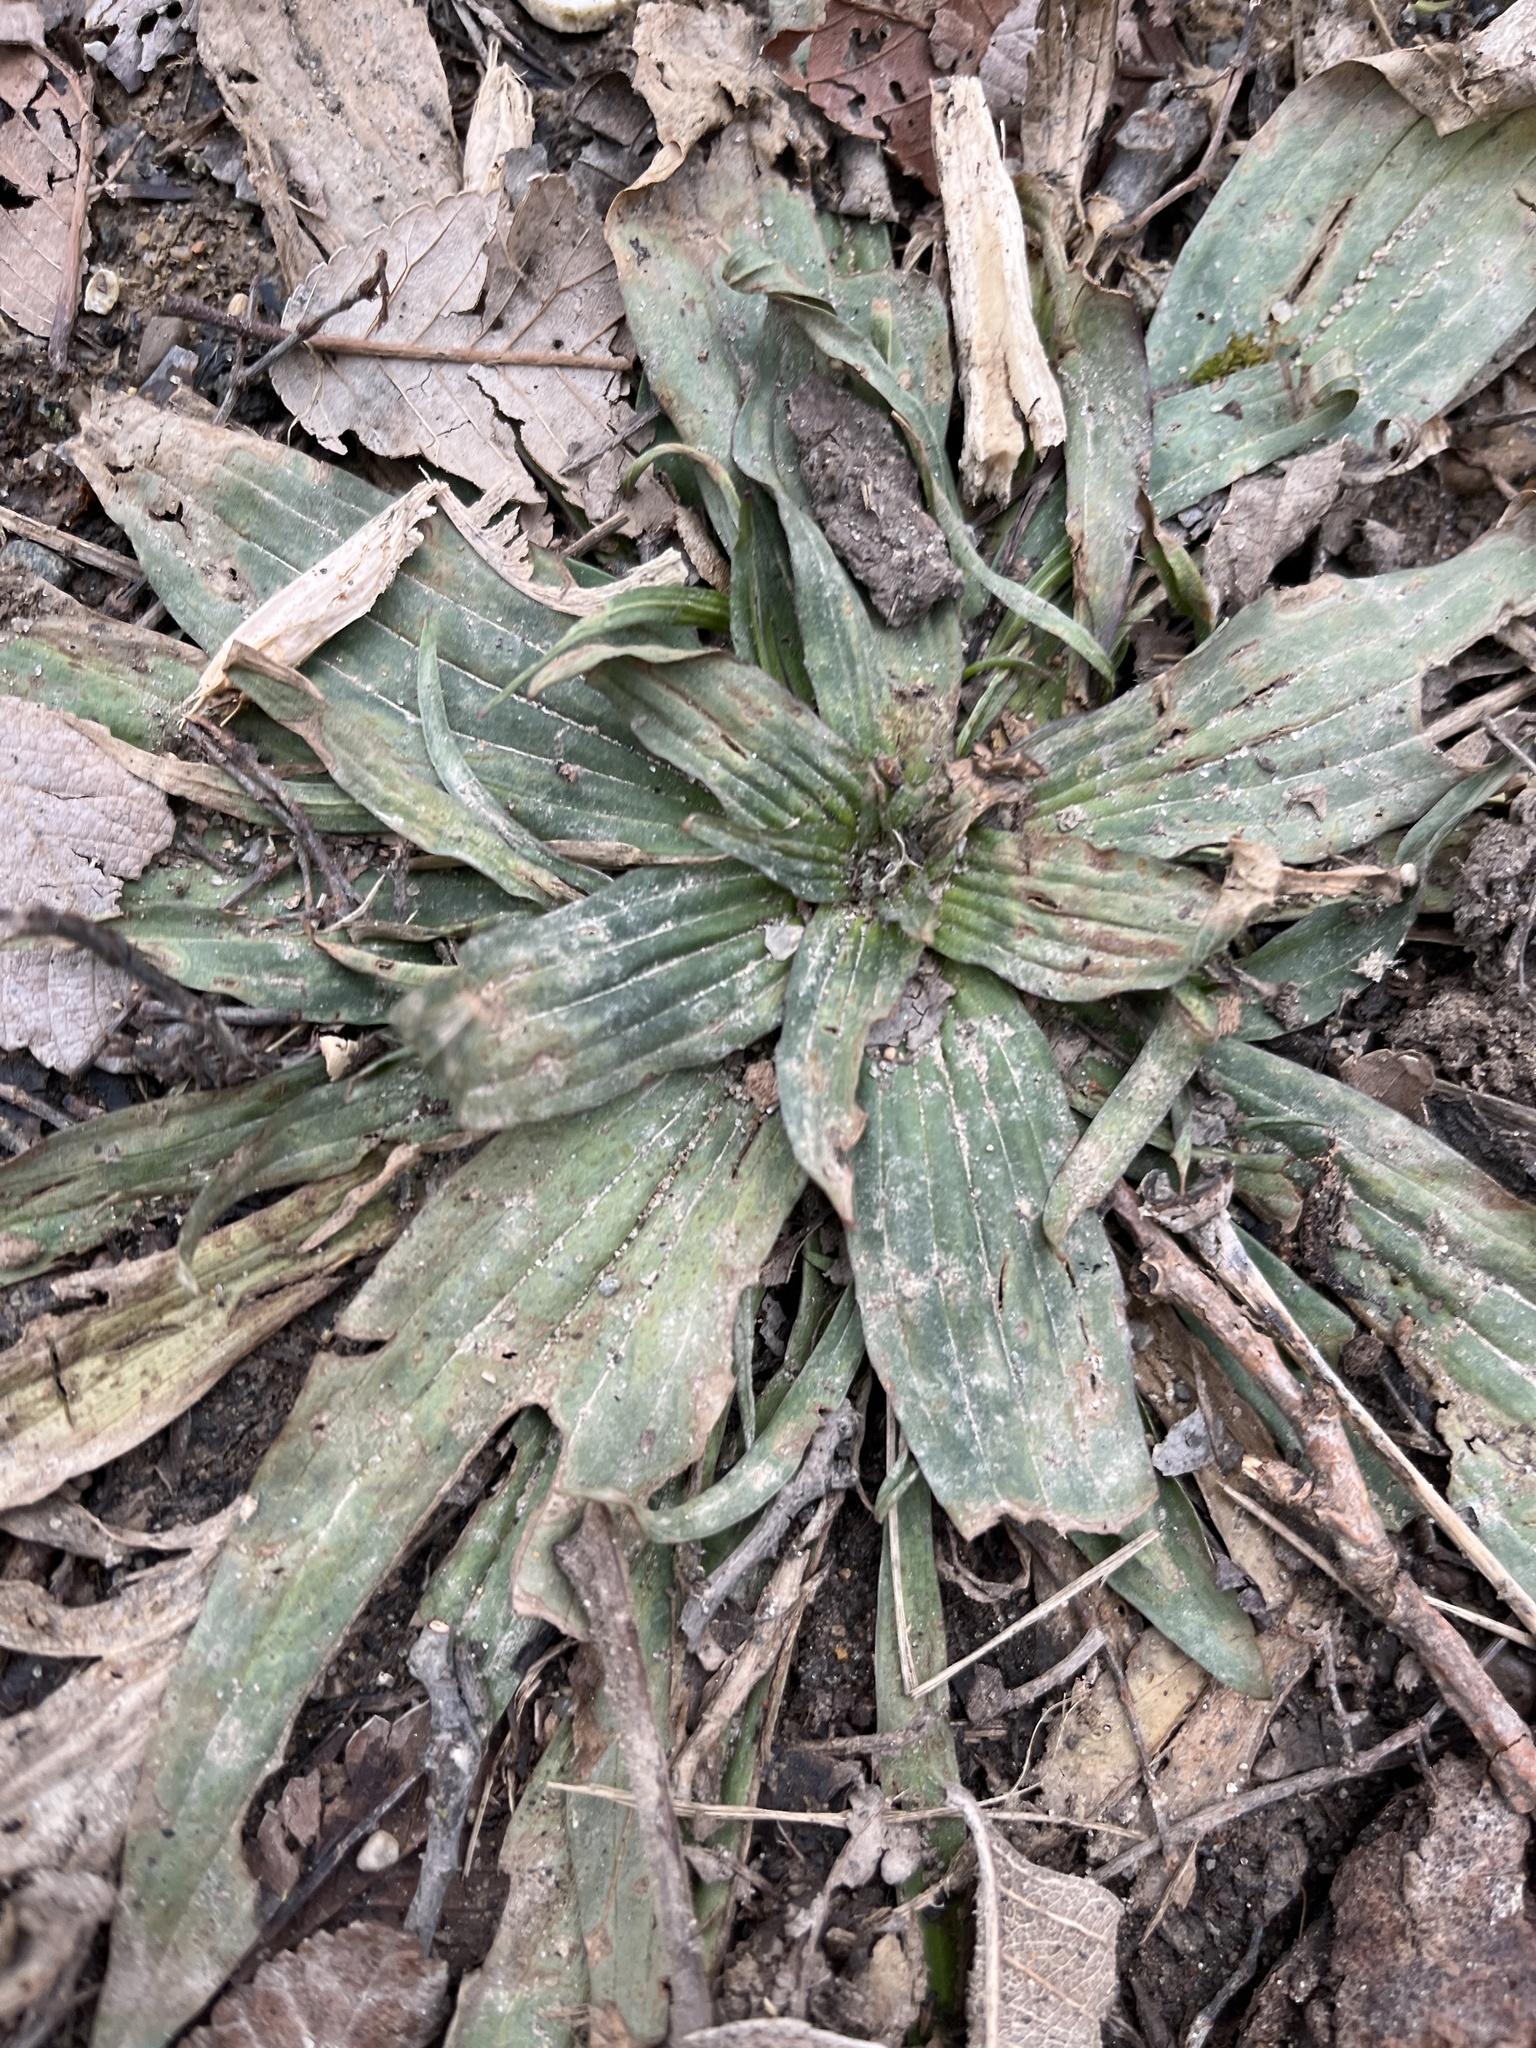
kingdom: Plantae
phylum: Tracheophyta
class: Magnoliopsida
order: Lamiales
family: Plantaginaceae
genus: Plantago
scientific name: Plantago lanceolata
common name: Ribwort plantain
